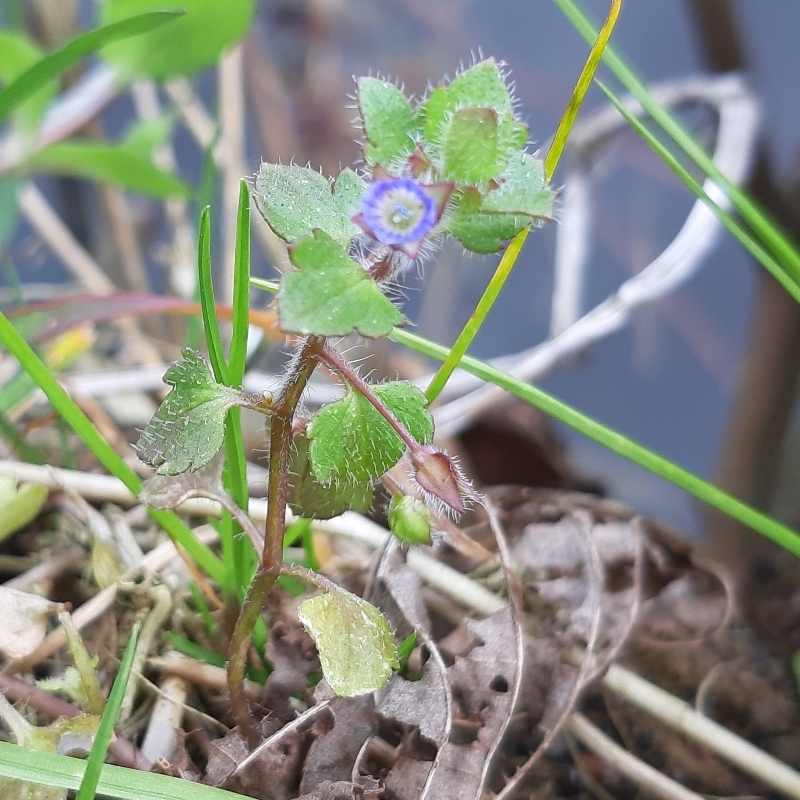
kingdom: Plantae
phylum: Tracheophyta
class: Magnoliopsida
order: Lamiales
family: Plantaginaceae
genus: Veronica
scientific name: Veronica hederifolia
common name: Ivy-leaved speedwell
